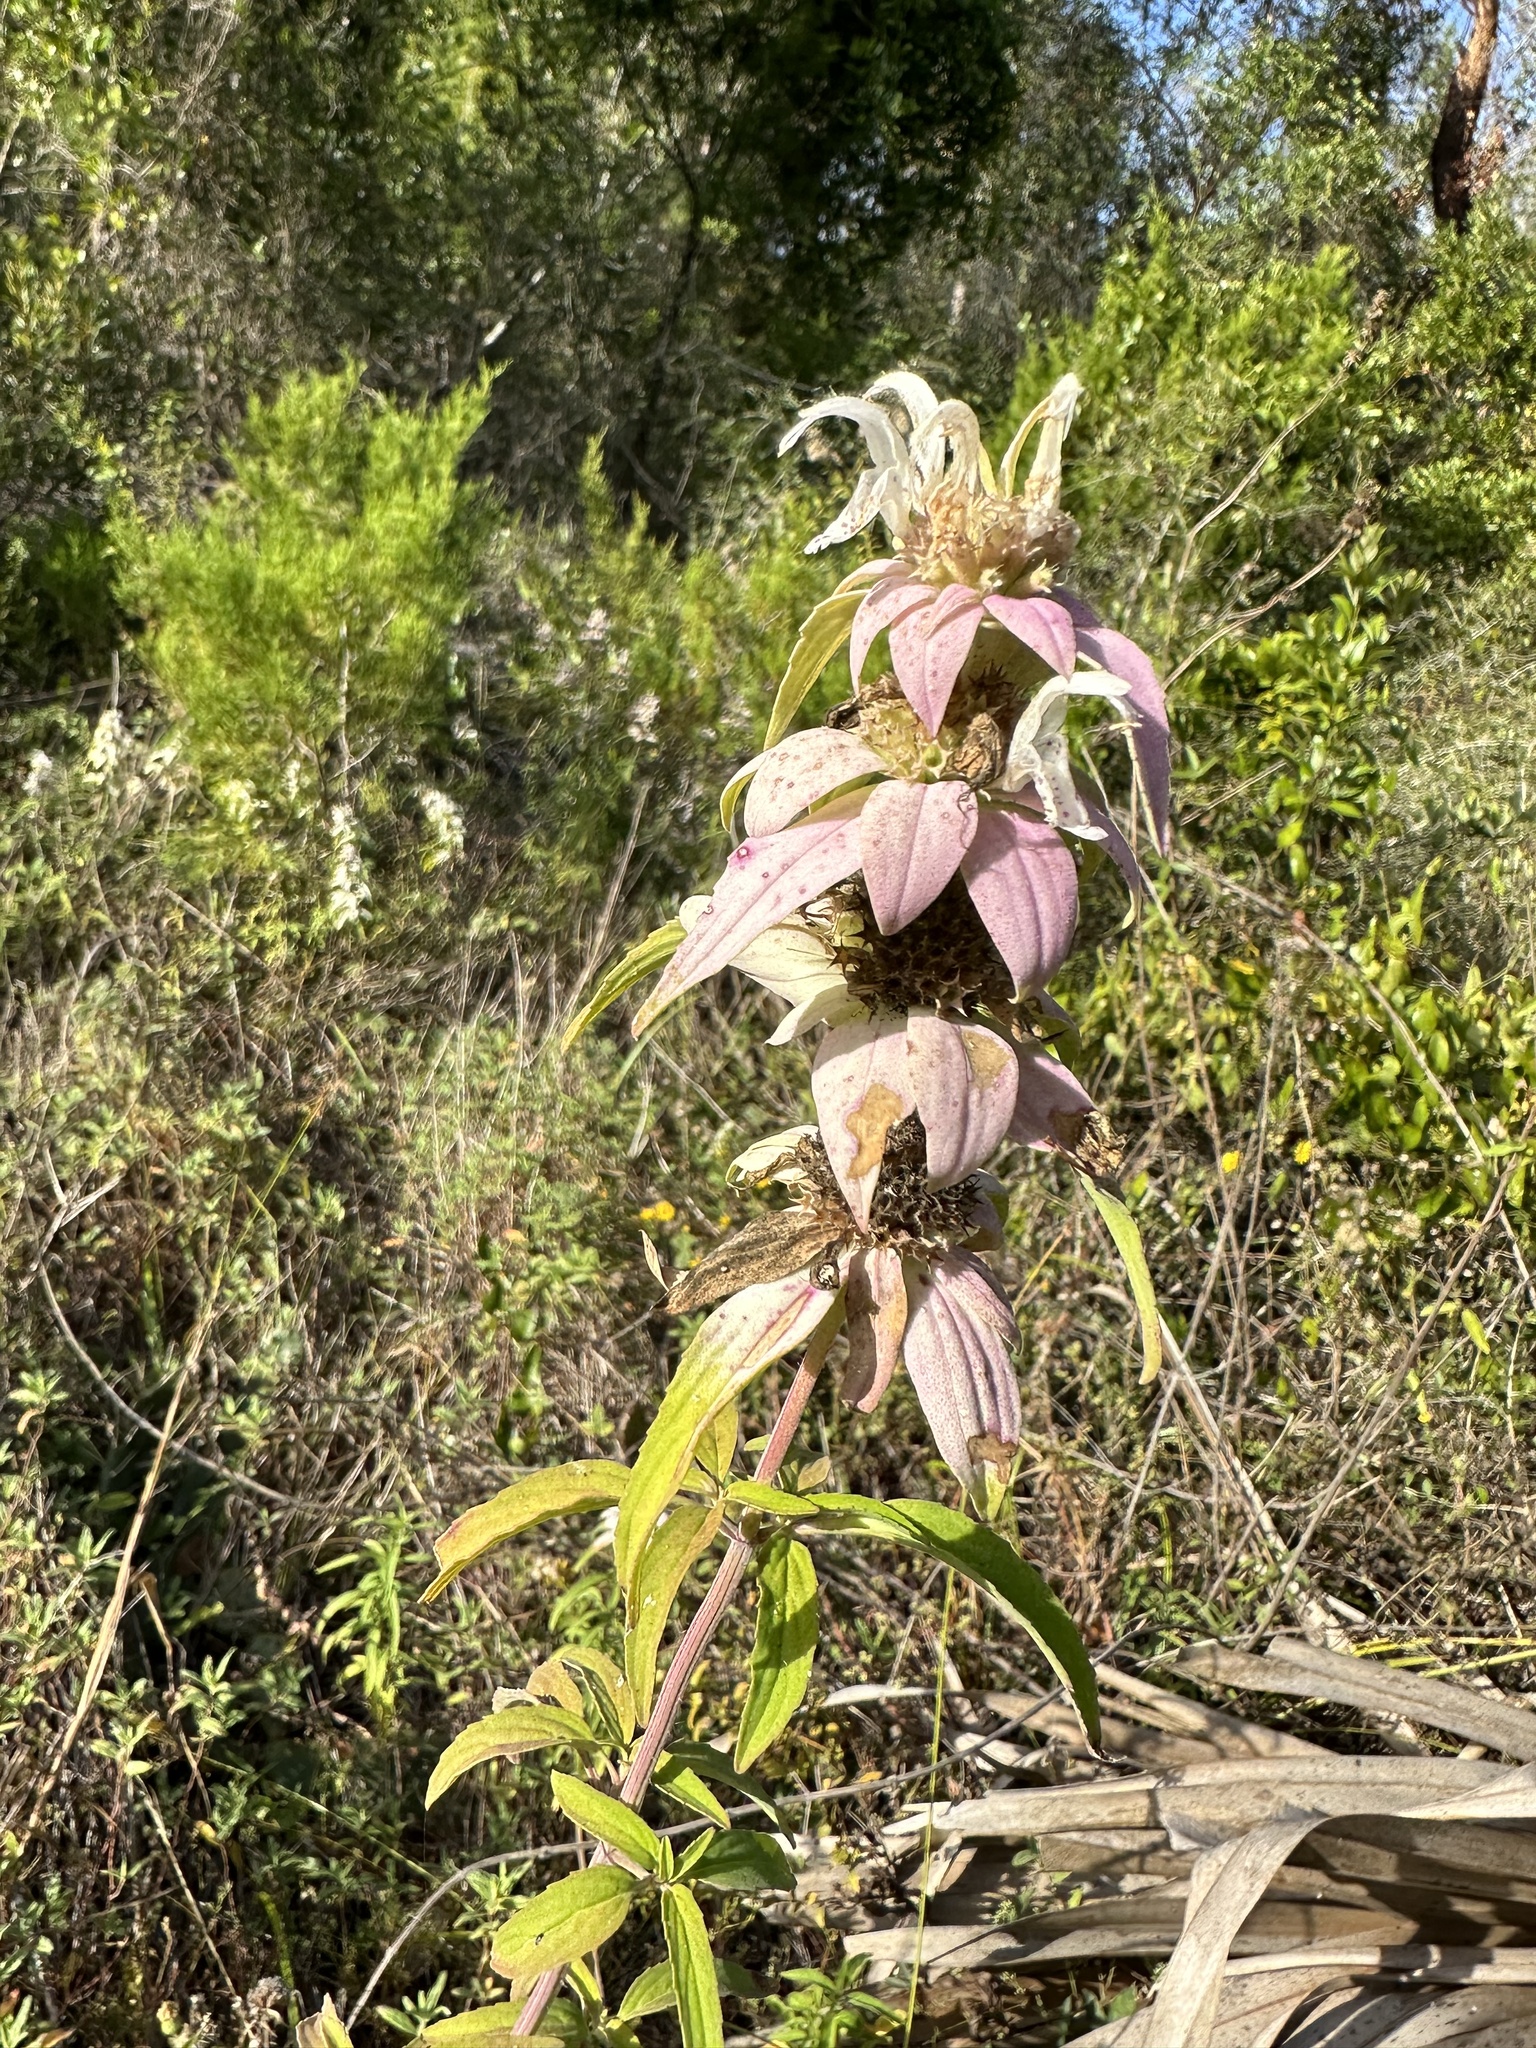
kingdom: Plantae
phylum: Tracheophyta
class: Magnoliopsida
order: Lamiales
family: Lamiaceae
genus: Monarda
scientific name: Monarda punctata
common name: Dotted monarda
